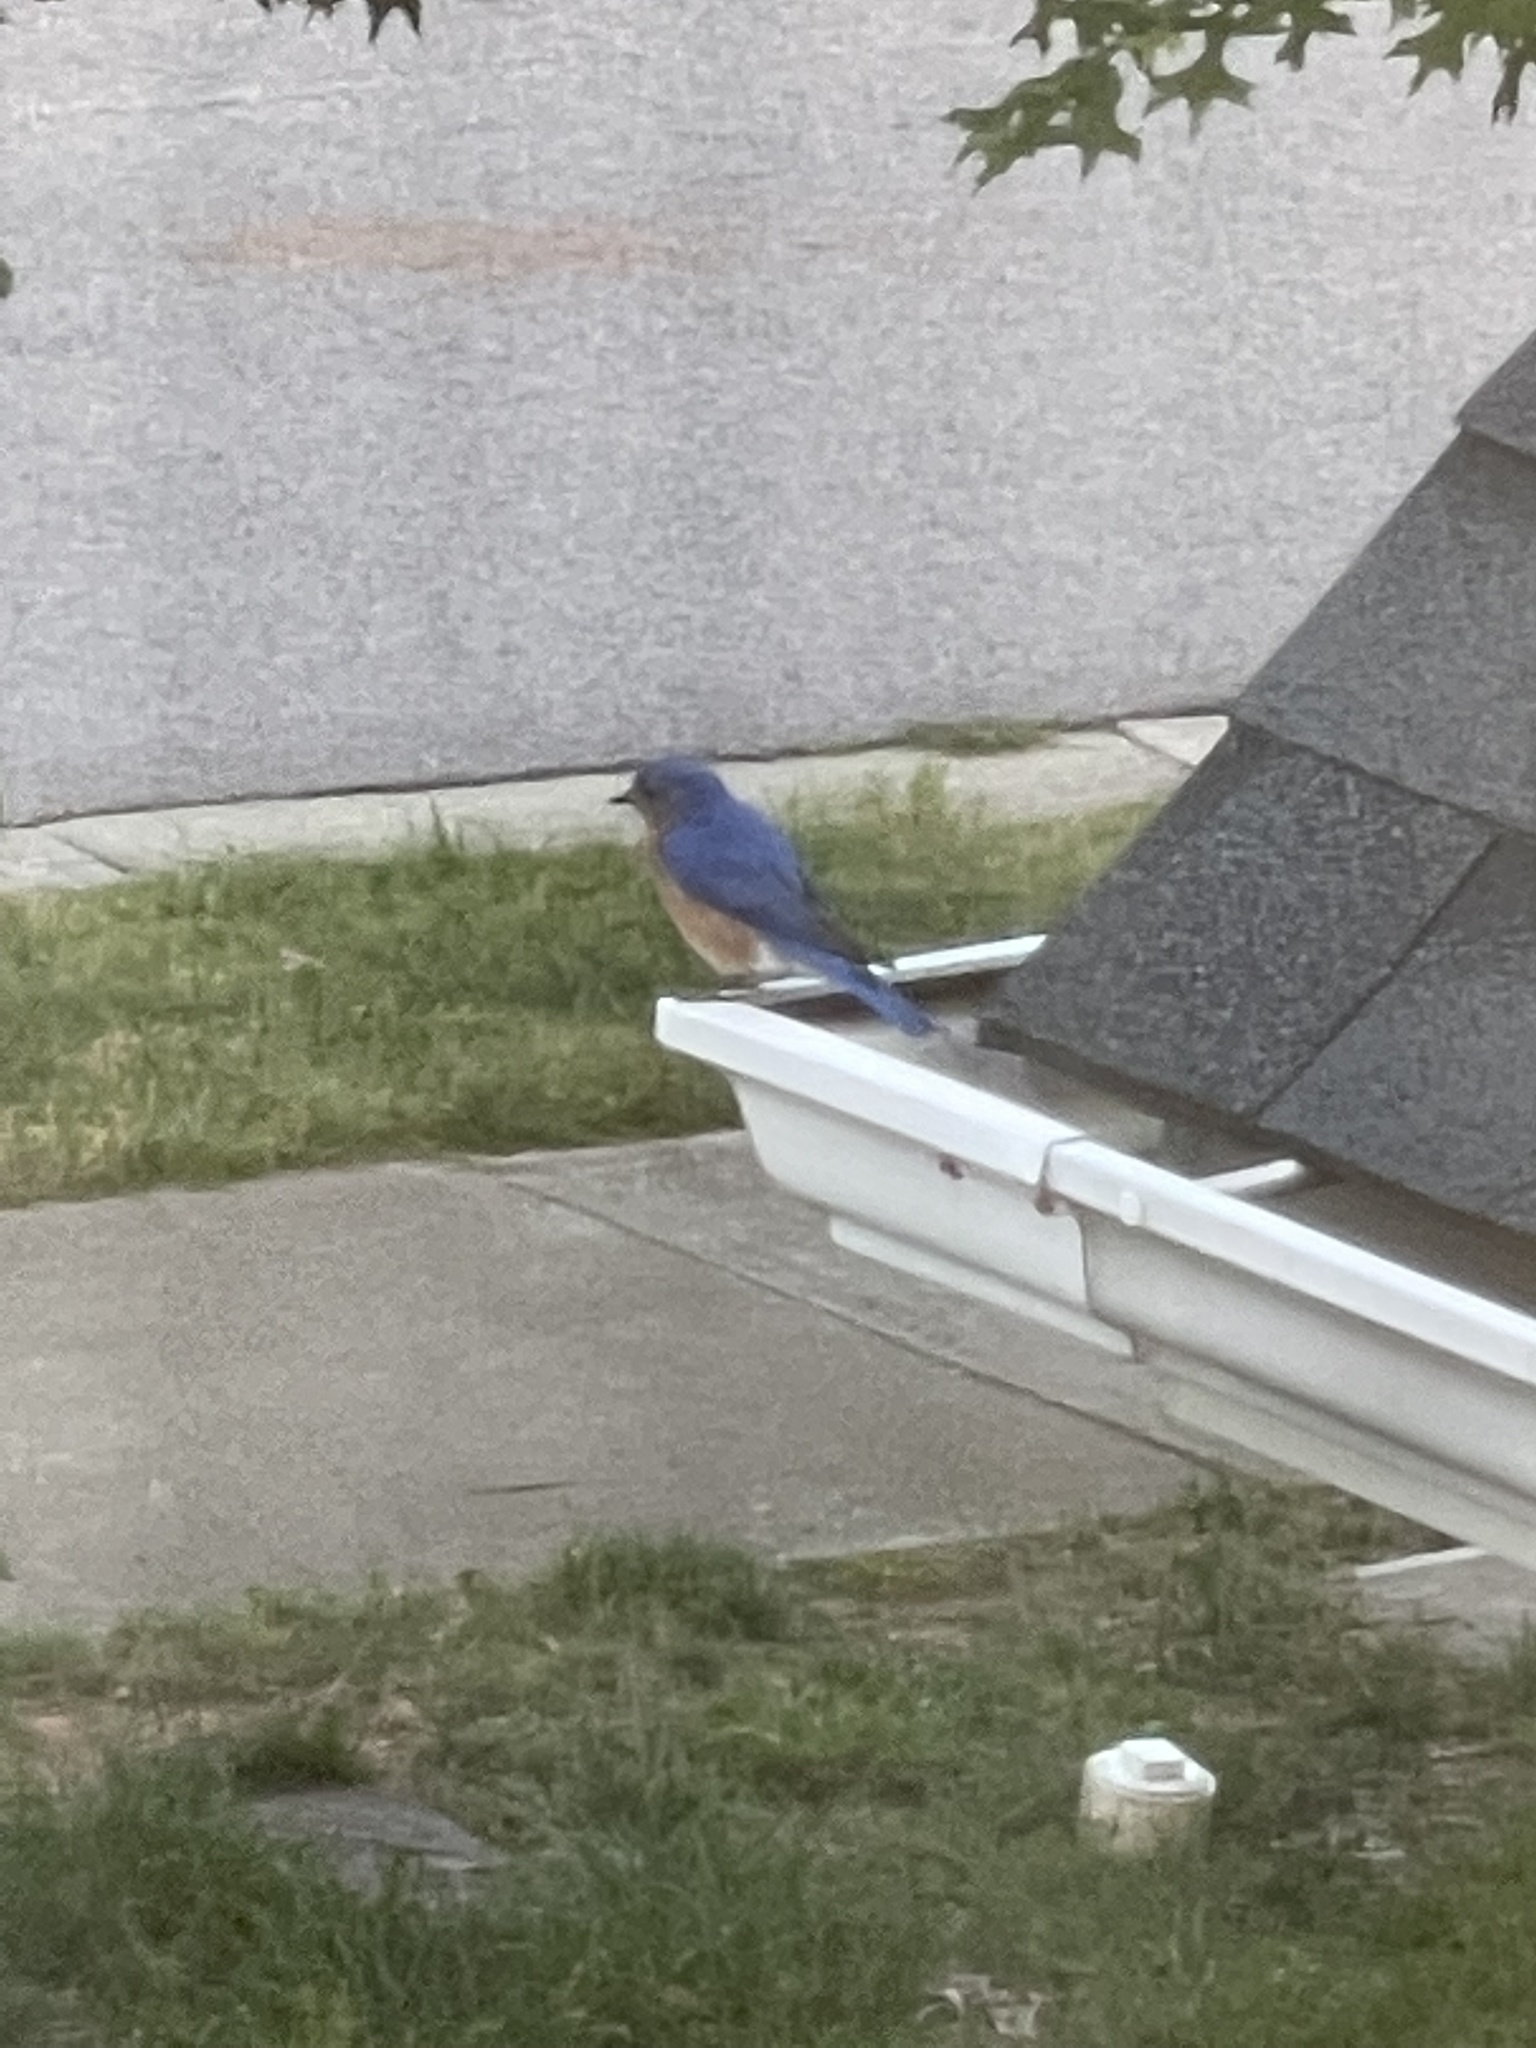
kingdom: Animalia
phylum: Chordata
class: Aves
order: Passeriformes
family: Turdidae
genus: Sialia
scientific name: Sialia sialis
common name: Eastern bluebird
